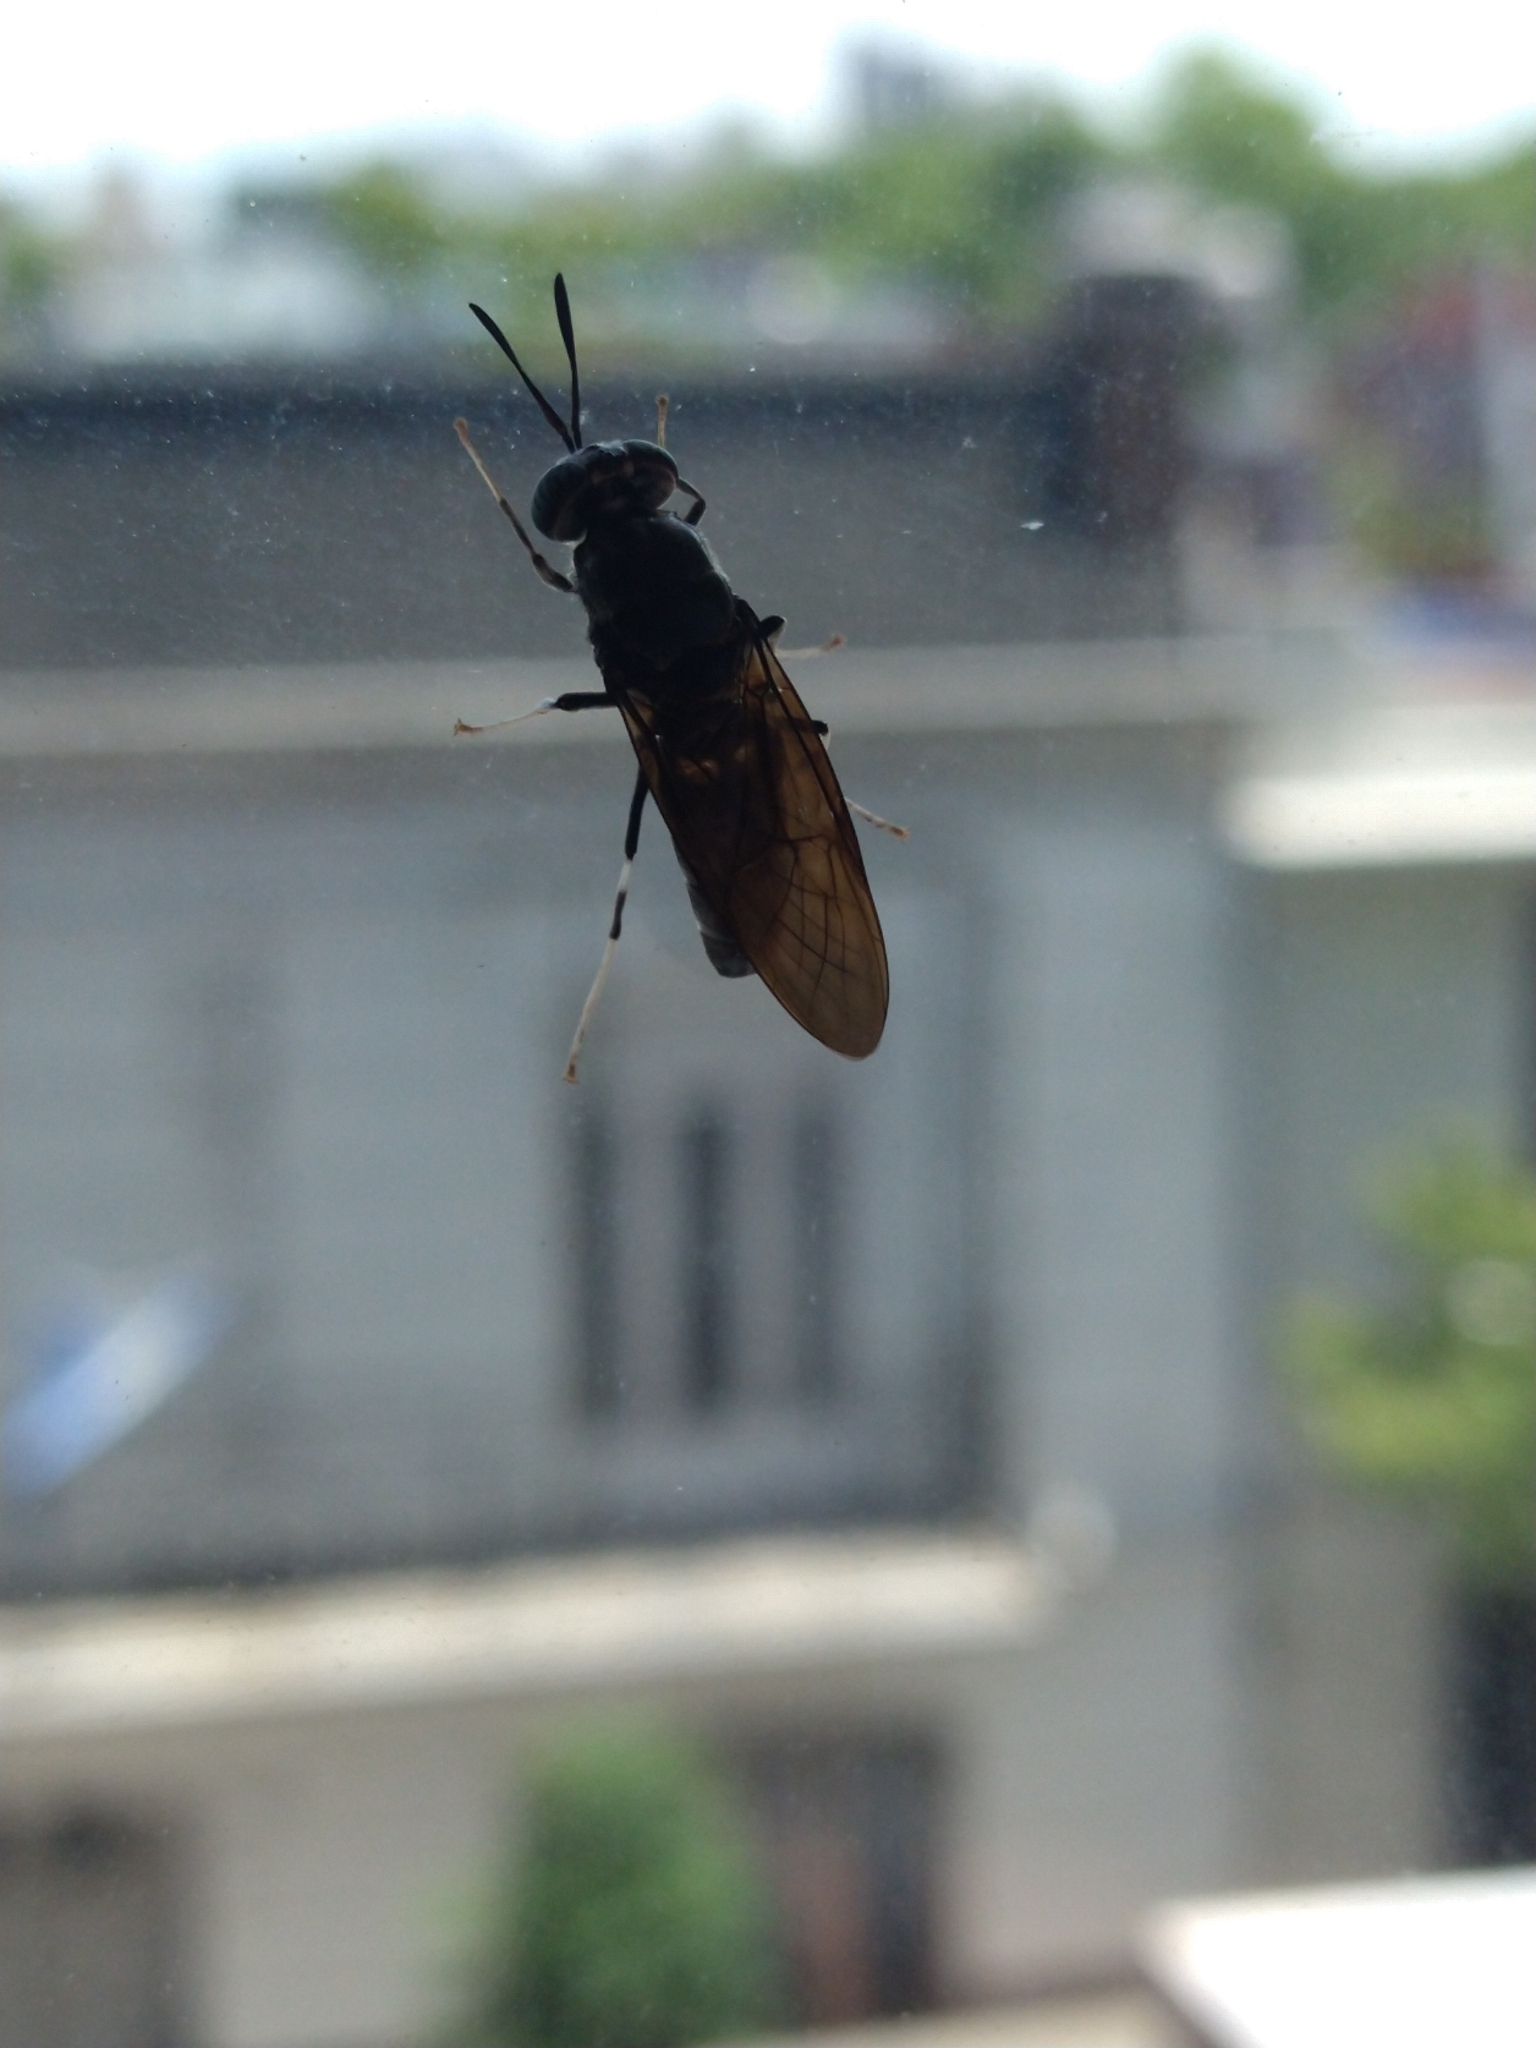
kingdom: Animalia
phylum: Arthropoda
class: Insecta
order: Diptera
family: Stratiomyidae
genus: Hermetia
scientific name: Hermetia illucens
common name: Black soldier fly
